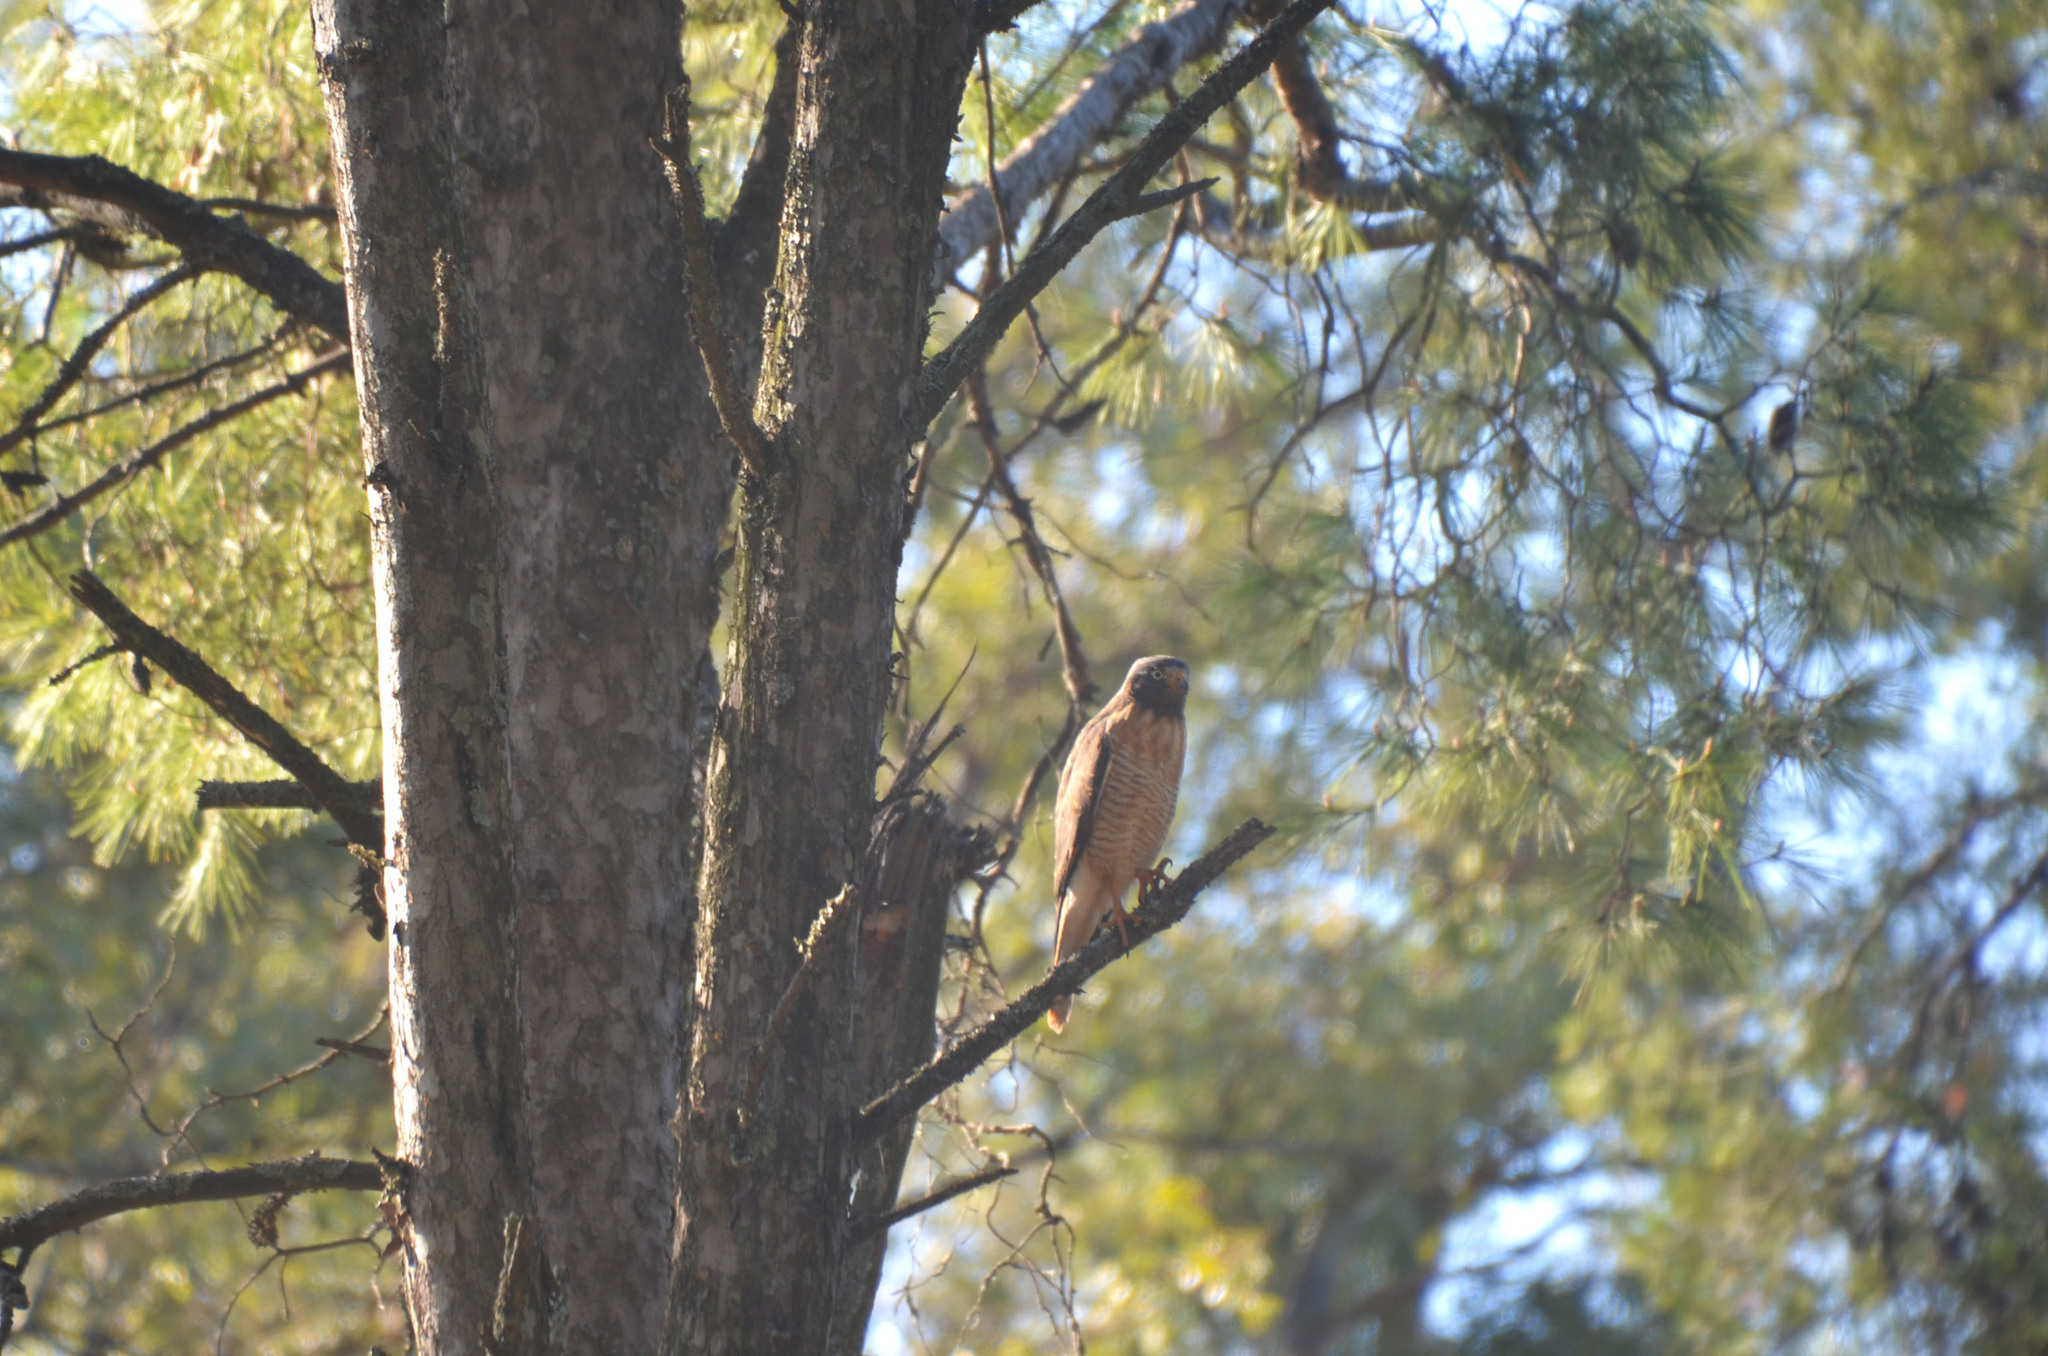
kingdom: Animalia
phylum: Chordata
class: Aves
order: Accipitriformes
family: Accipitridae
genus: Rupornis
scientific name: Rupornis magnirostris
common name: Roadside hawk
